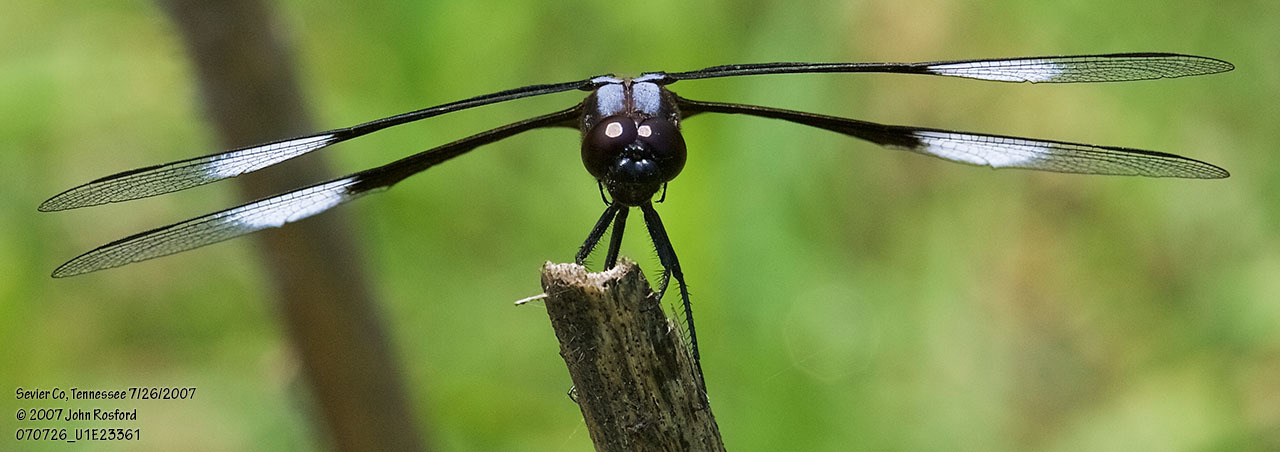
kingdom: Animalia
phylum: Arthropoda
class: Insecta
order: Odonata
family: Libellulidae
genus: Libellula
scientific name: Libellula luctuosa
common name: Widow skimmer
